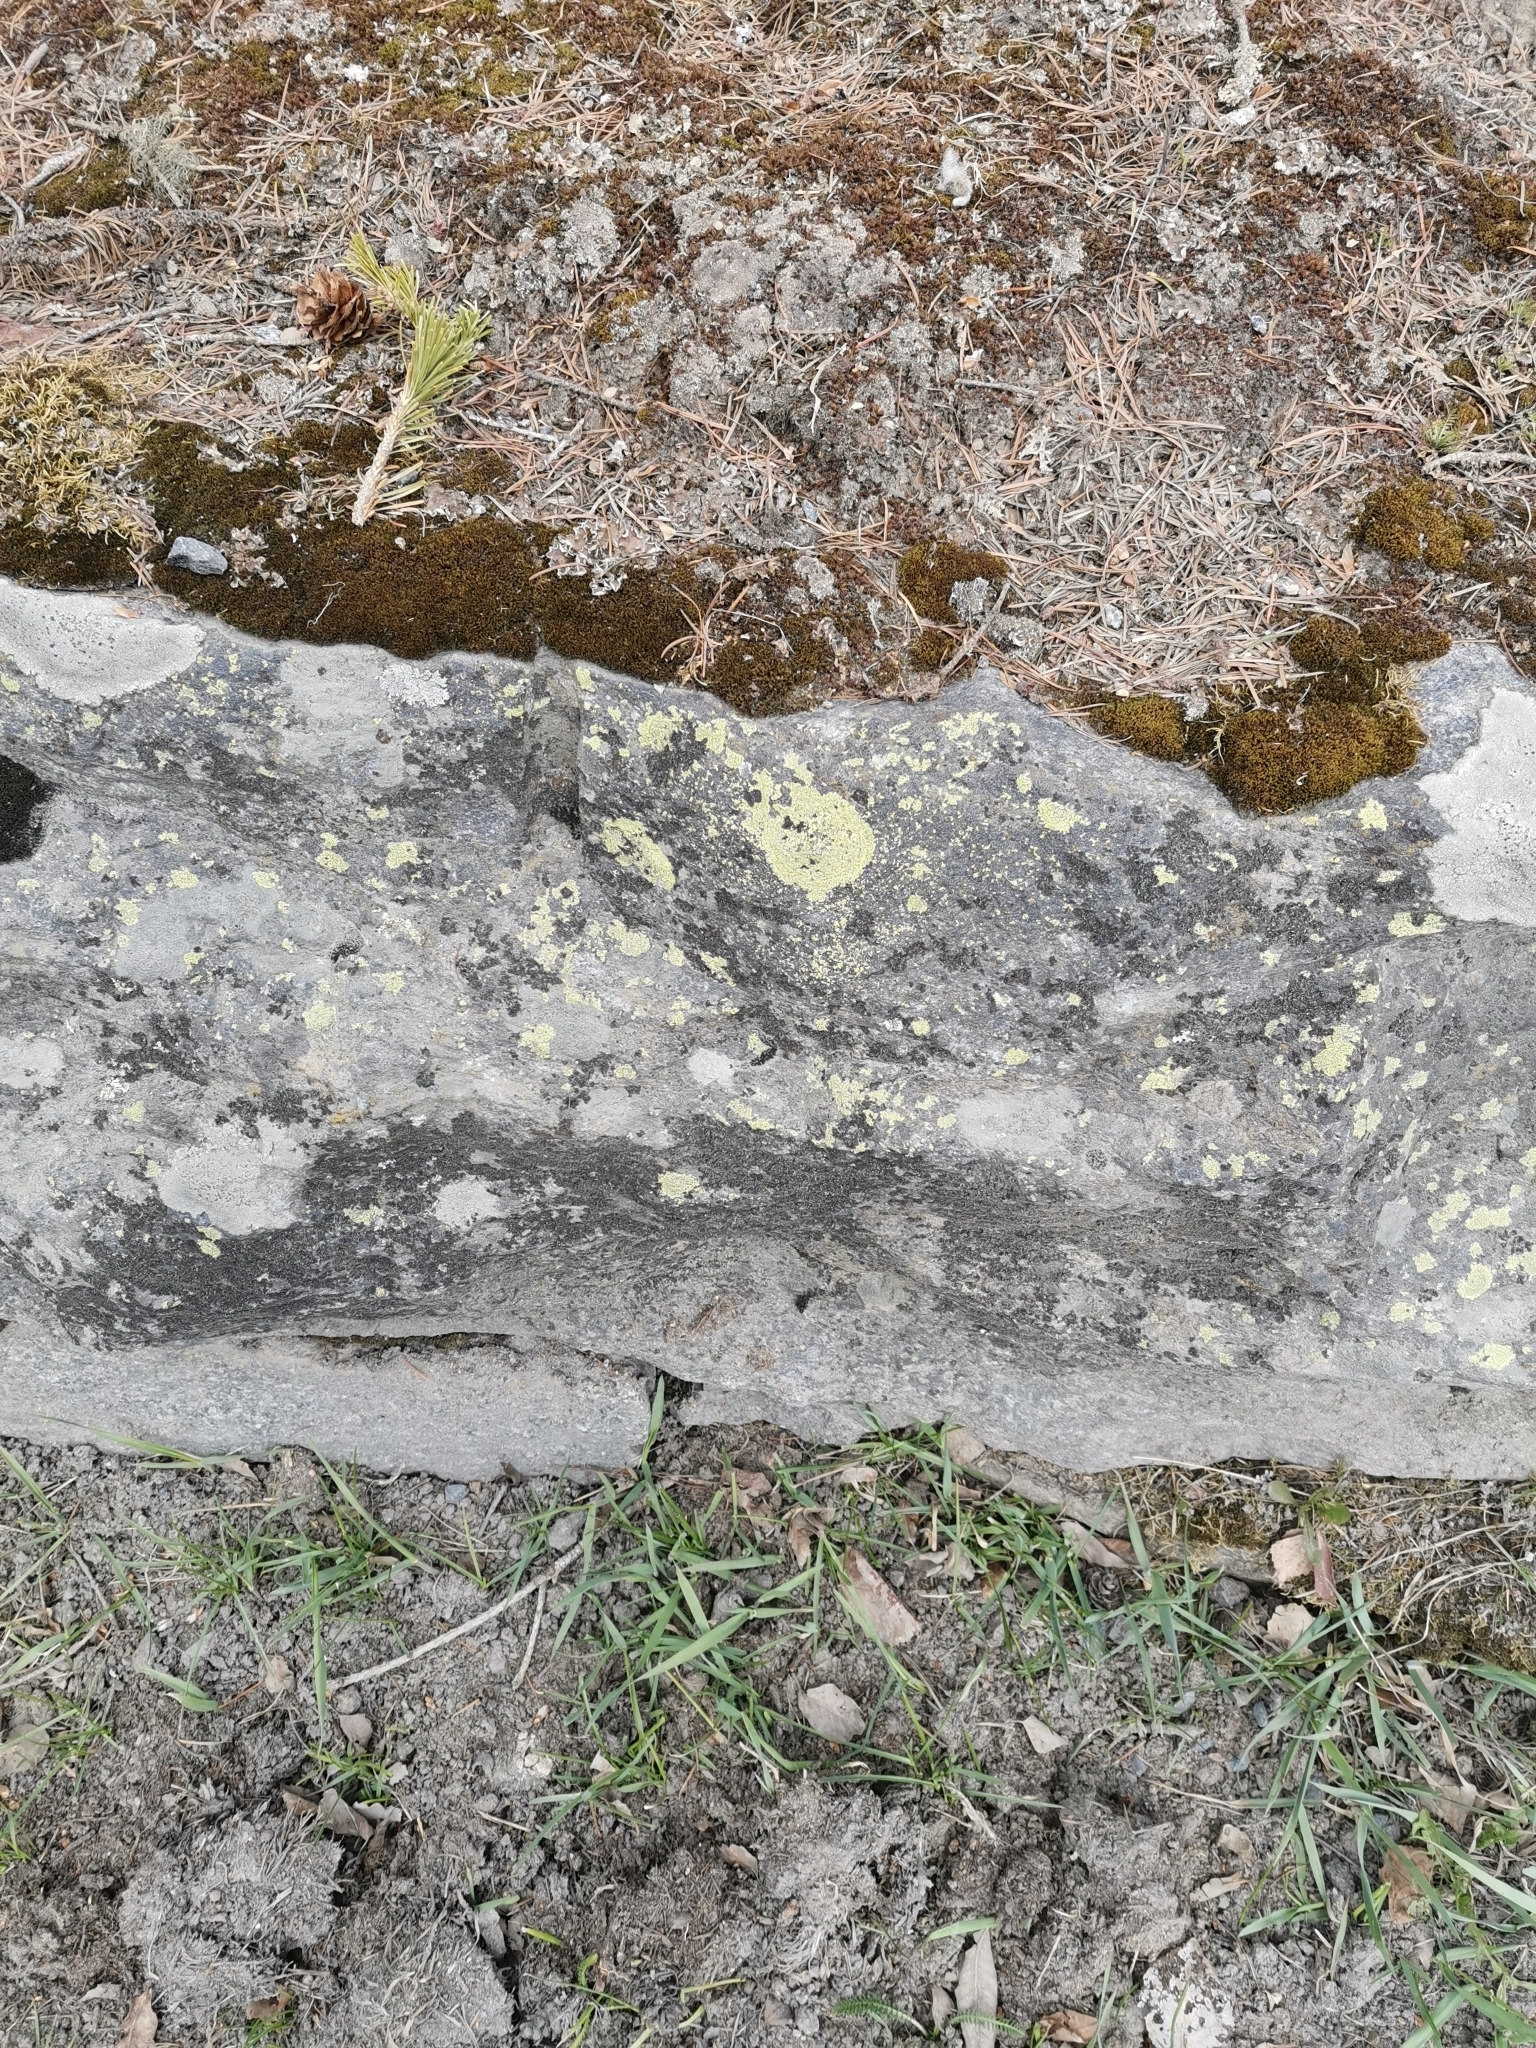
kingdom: Fungi
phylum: Ascomycota
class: Lecanoromycetes
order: Rhizocarpales
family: Rhizocarpaceae
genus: Rhizocarpon
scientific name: Rhizocarpon lecanorinum
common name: Crescent map lichen
